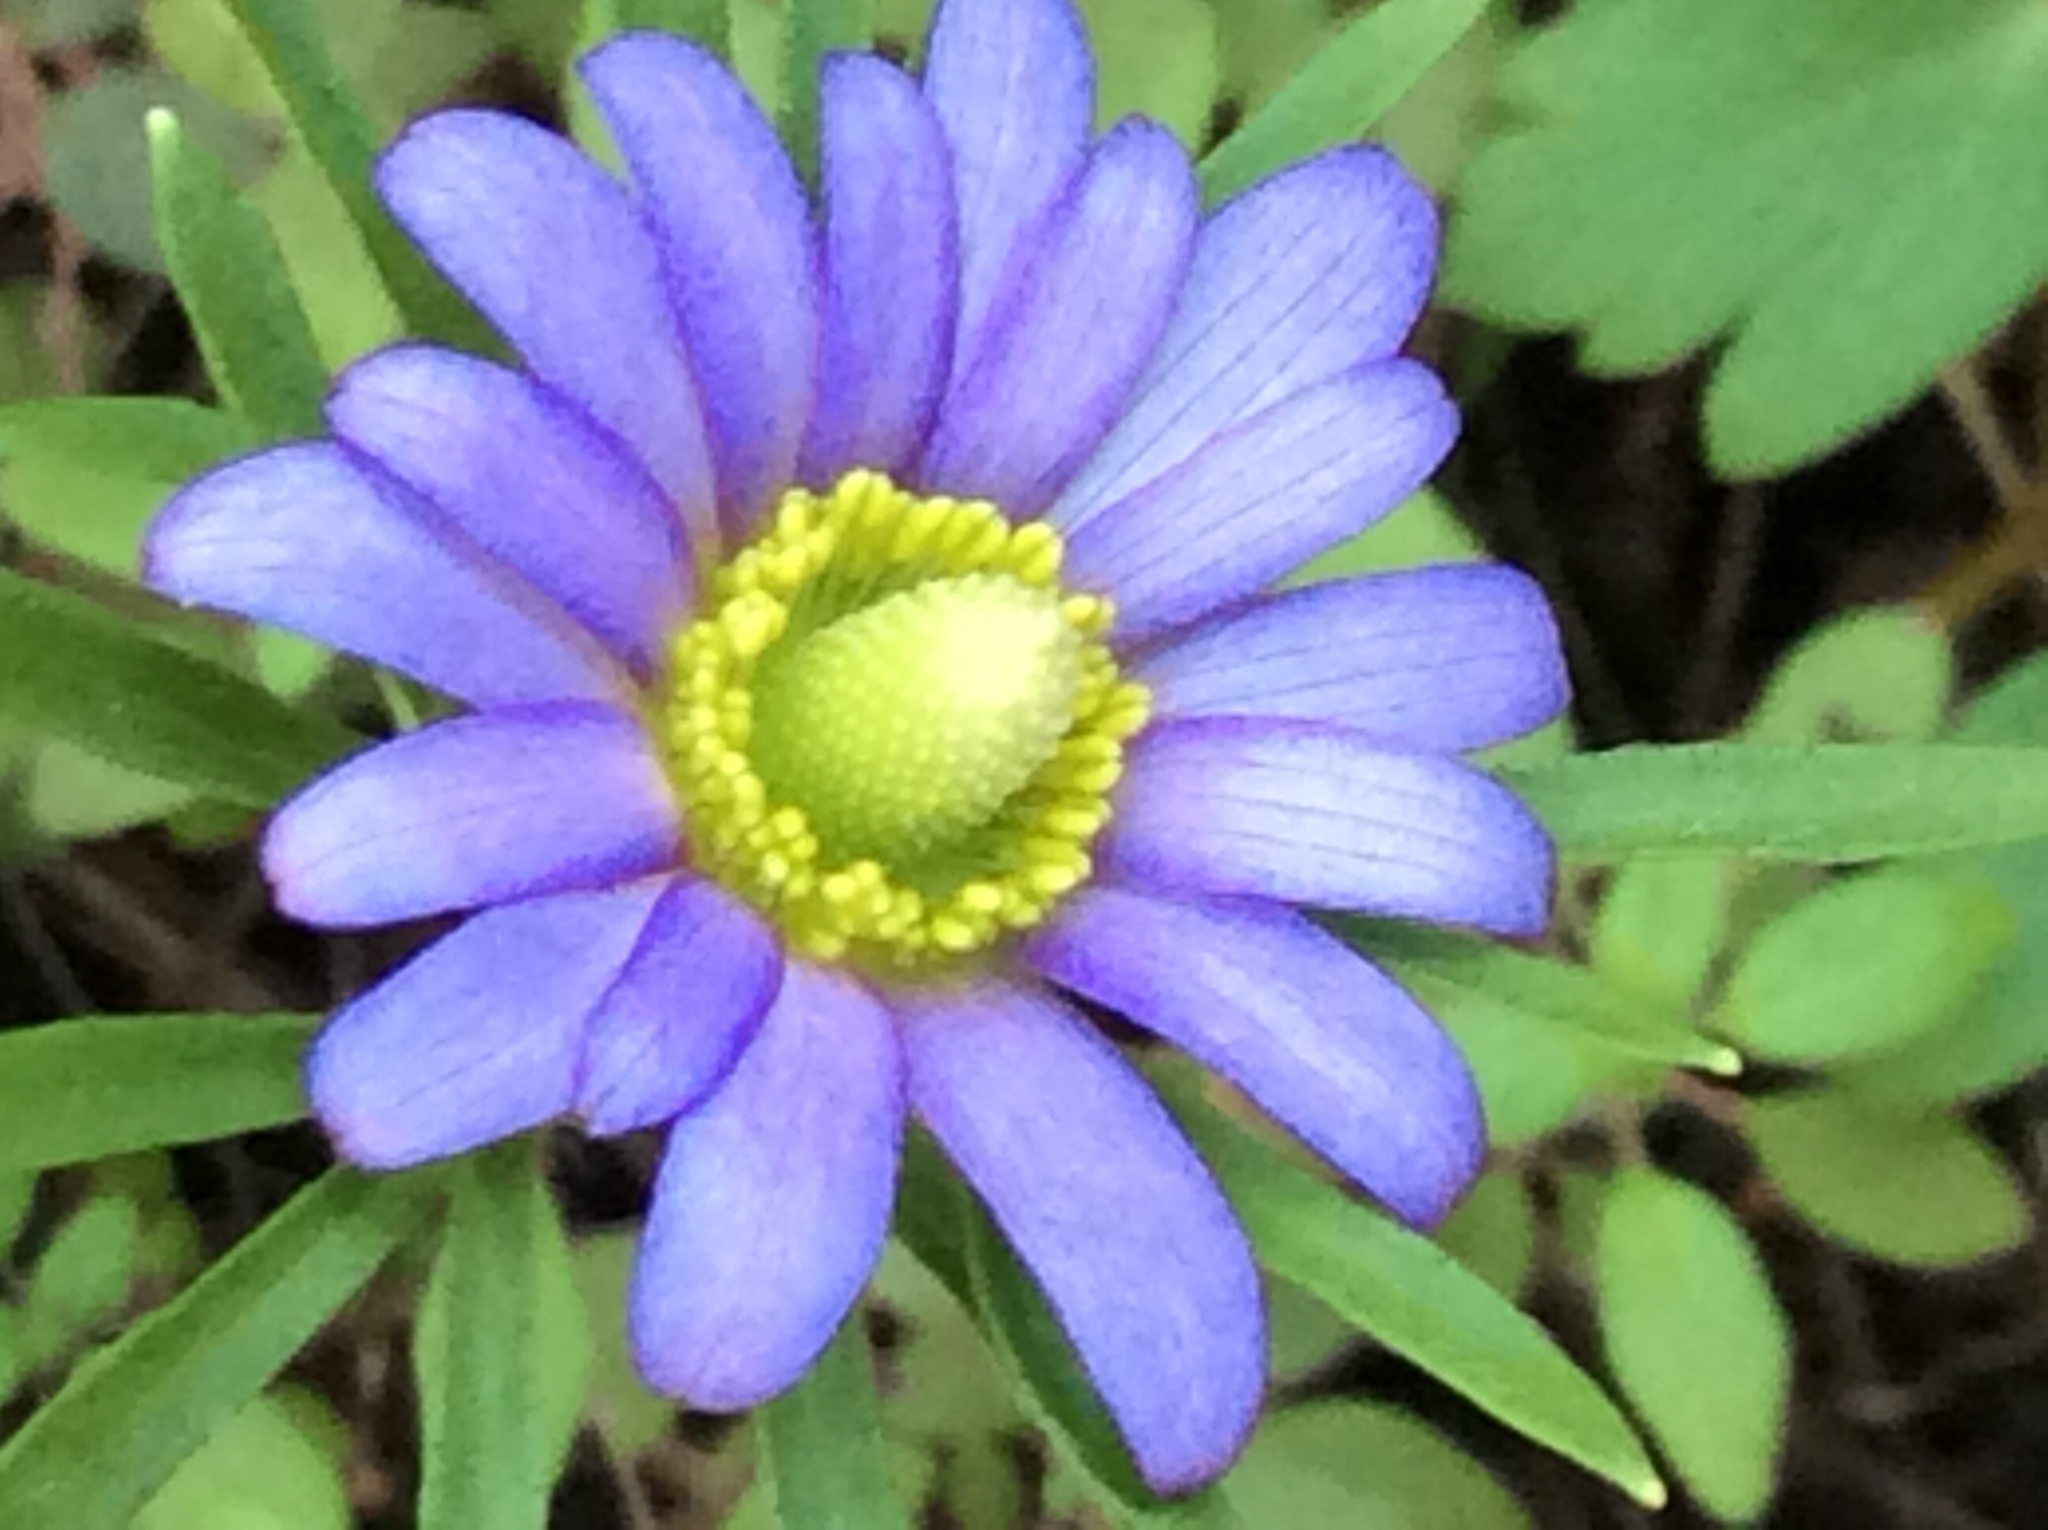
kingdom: Plantae
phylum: Tracheophyta
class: Magnoliopsida
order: Ranunculales
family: Ranunculaceae
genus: Anemone
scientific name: Anemone berlandieri
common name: Ten-petal anemone
